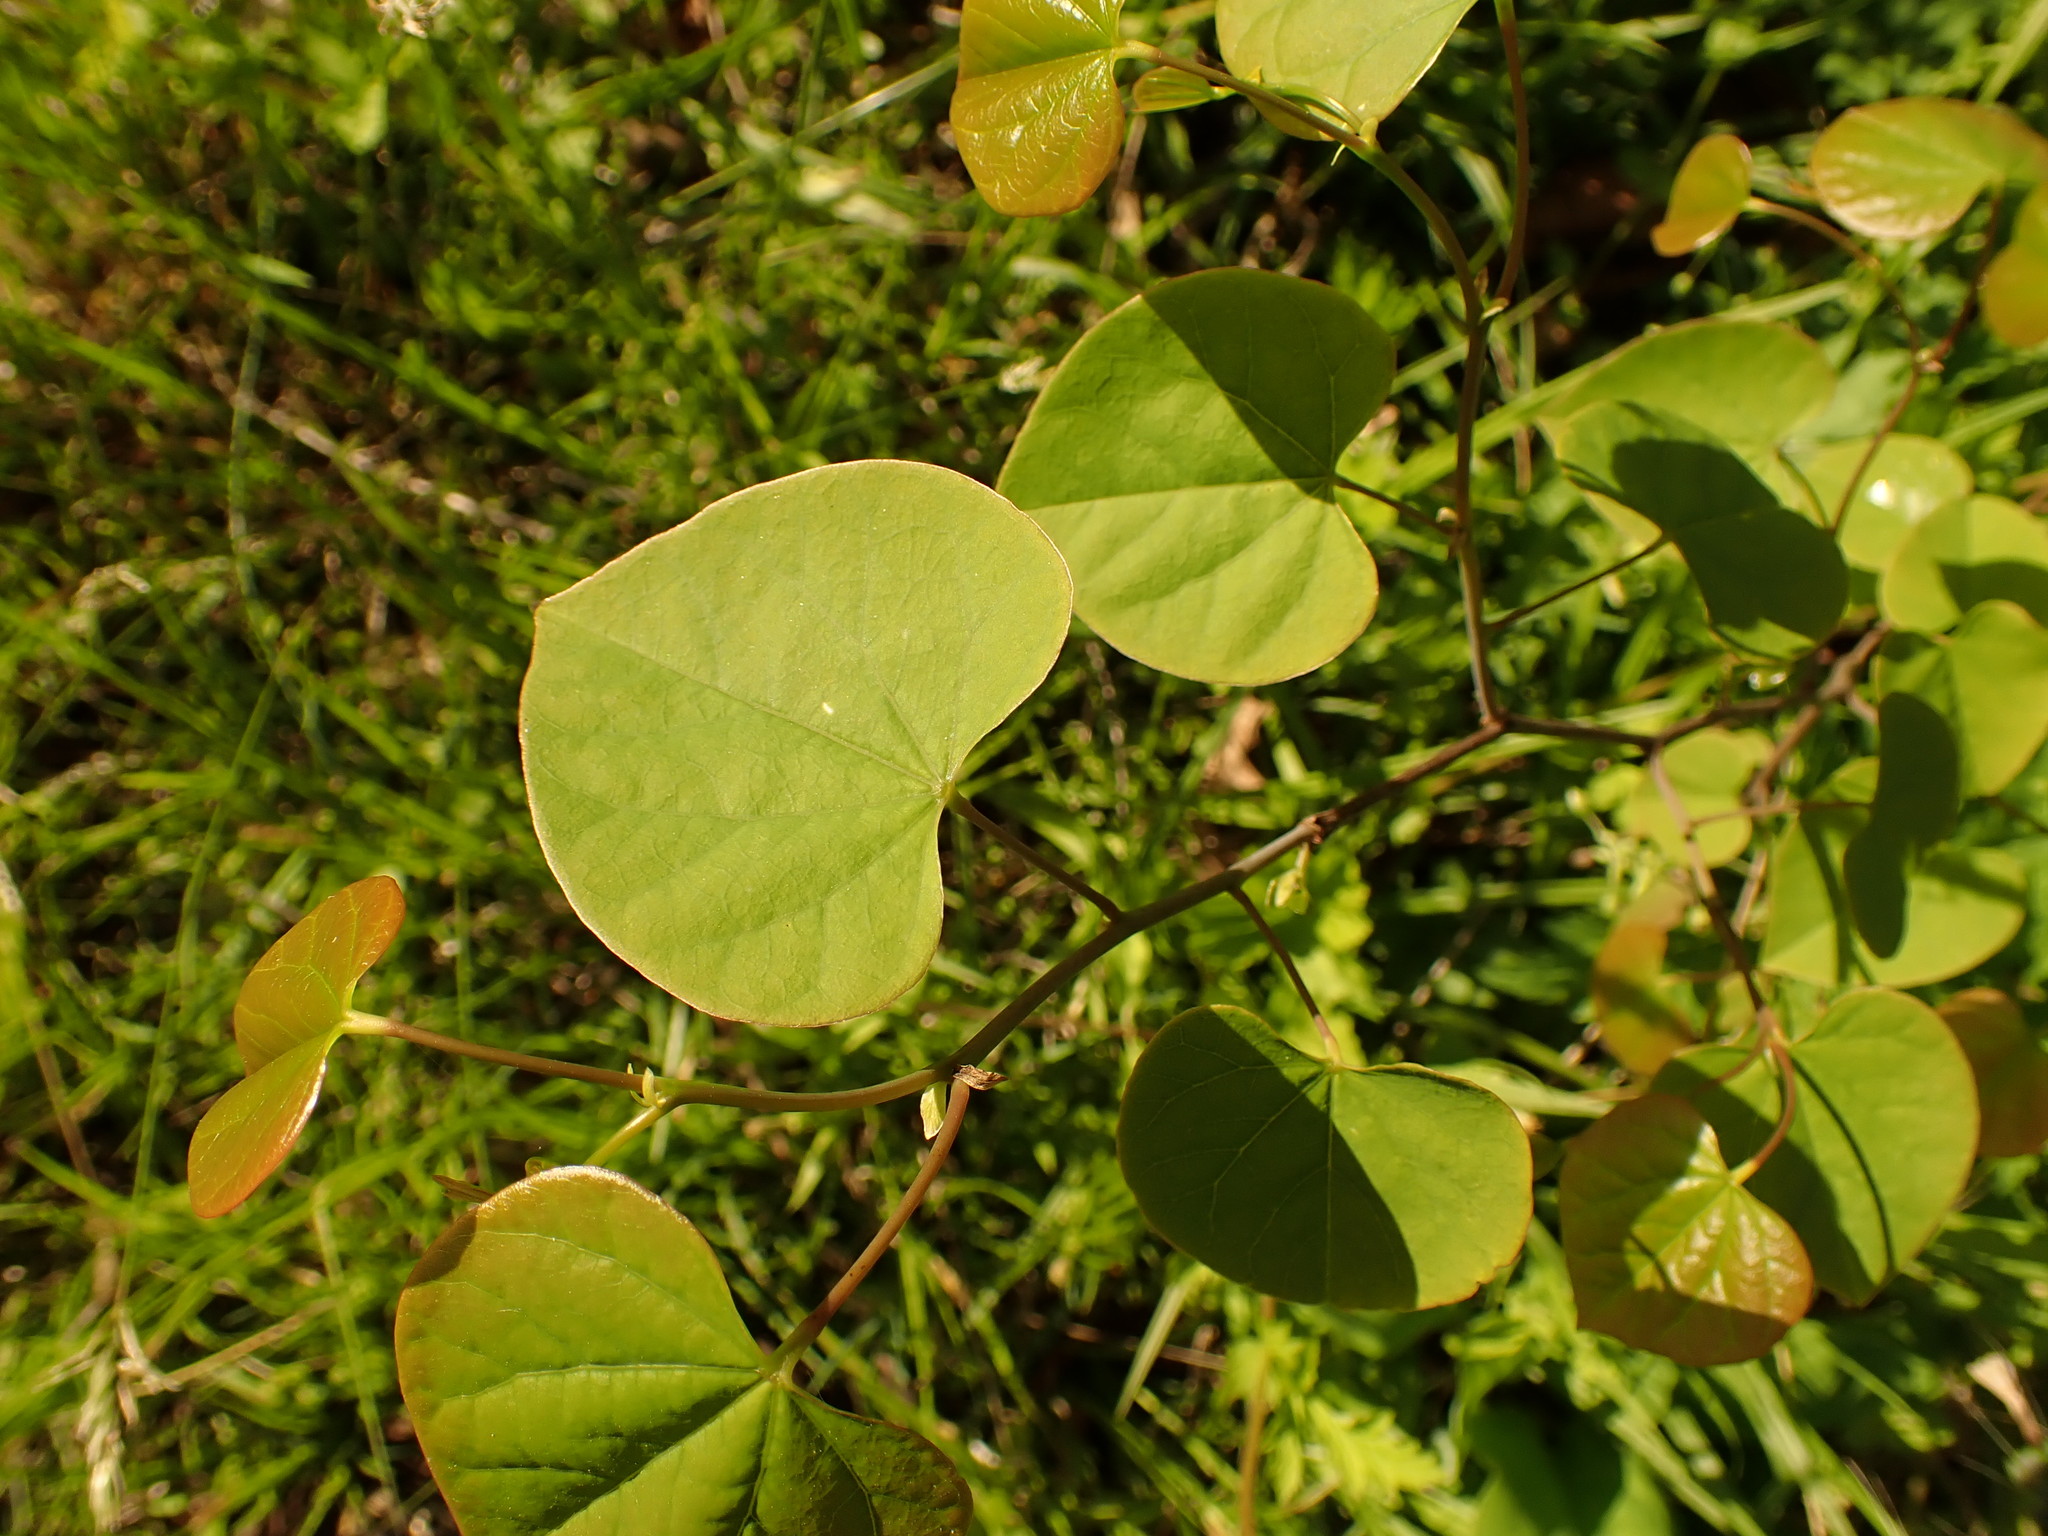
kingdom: Plantae
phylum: Tracheophyta
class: Magnoliopsida
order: Fabales
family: Fabaceae
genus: Cercis
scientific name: Cercis canadensis
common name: Eastern redbud
